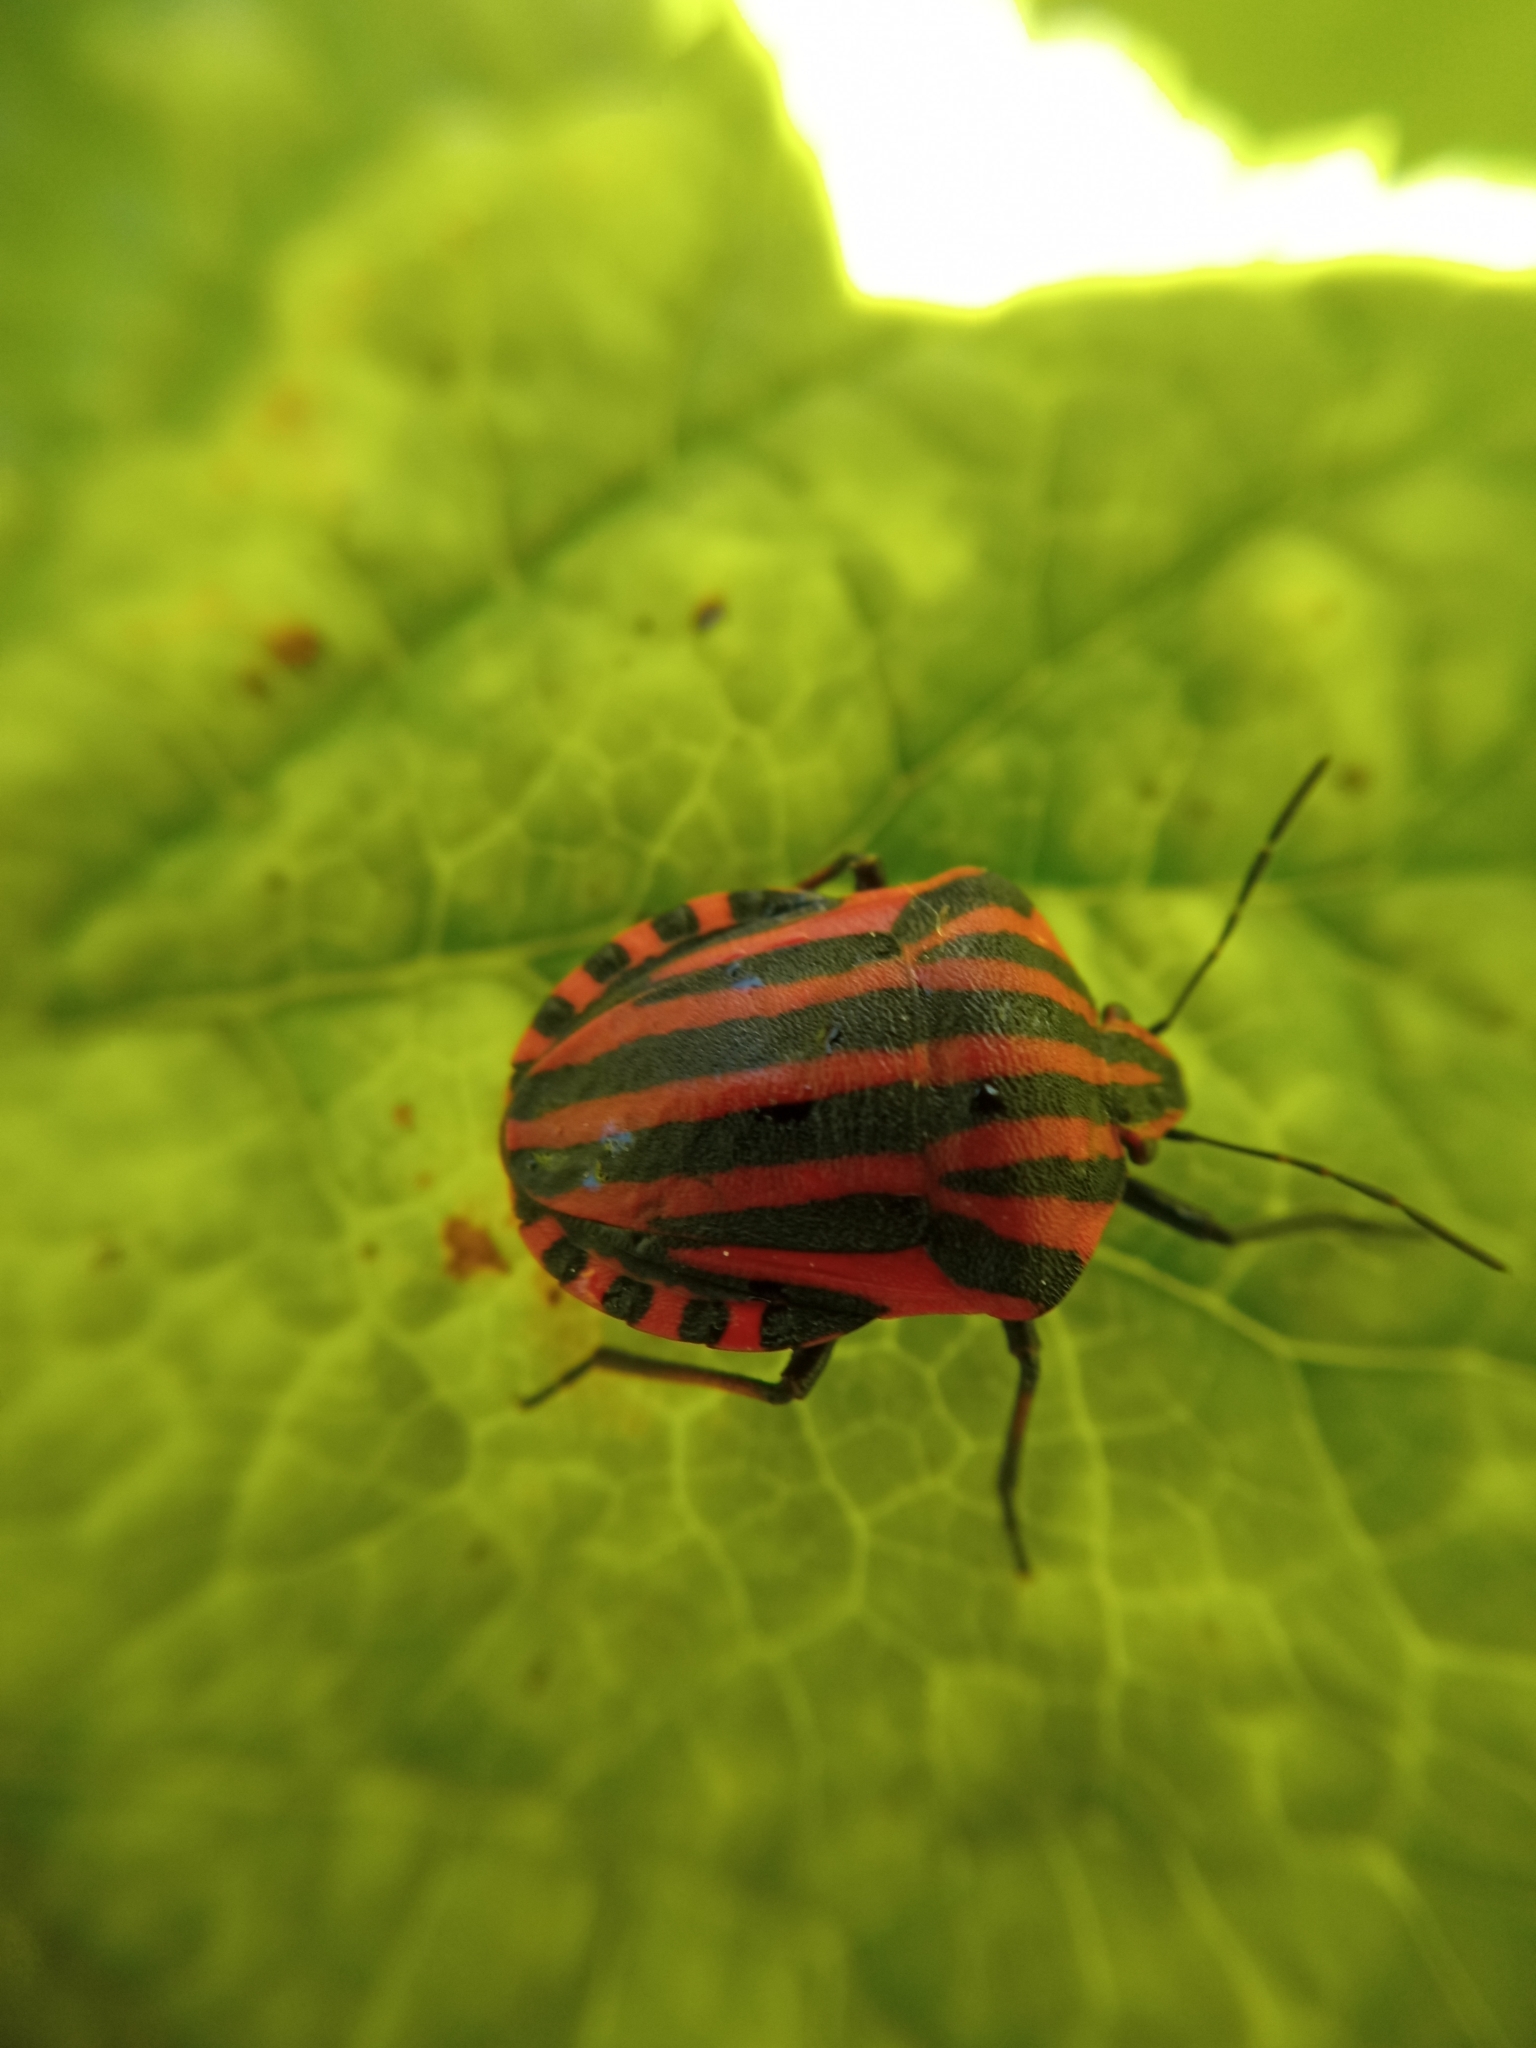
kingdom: Animalia
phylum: Arthropoda
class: Insecta
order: Hemiptera
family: Pentatomidae
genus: Graphosoma
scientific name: Graphosoma italicum
